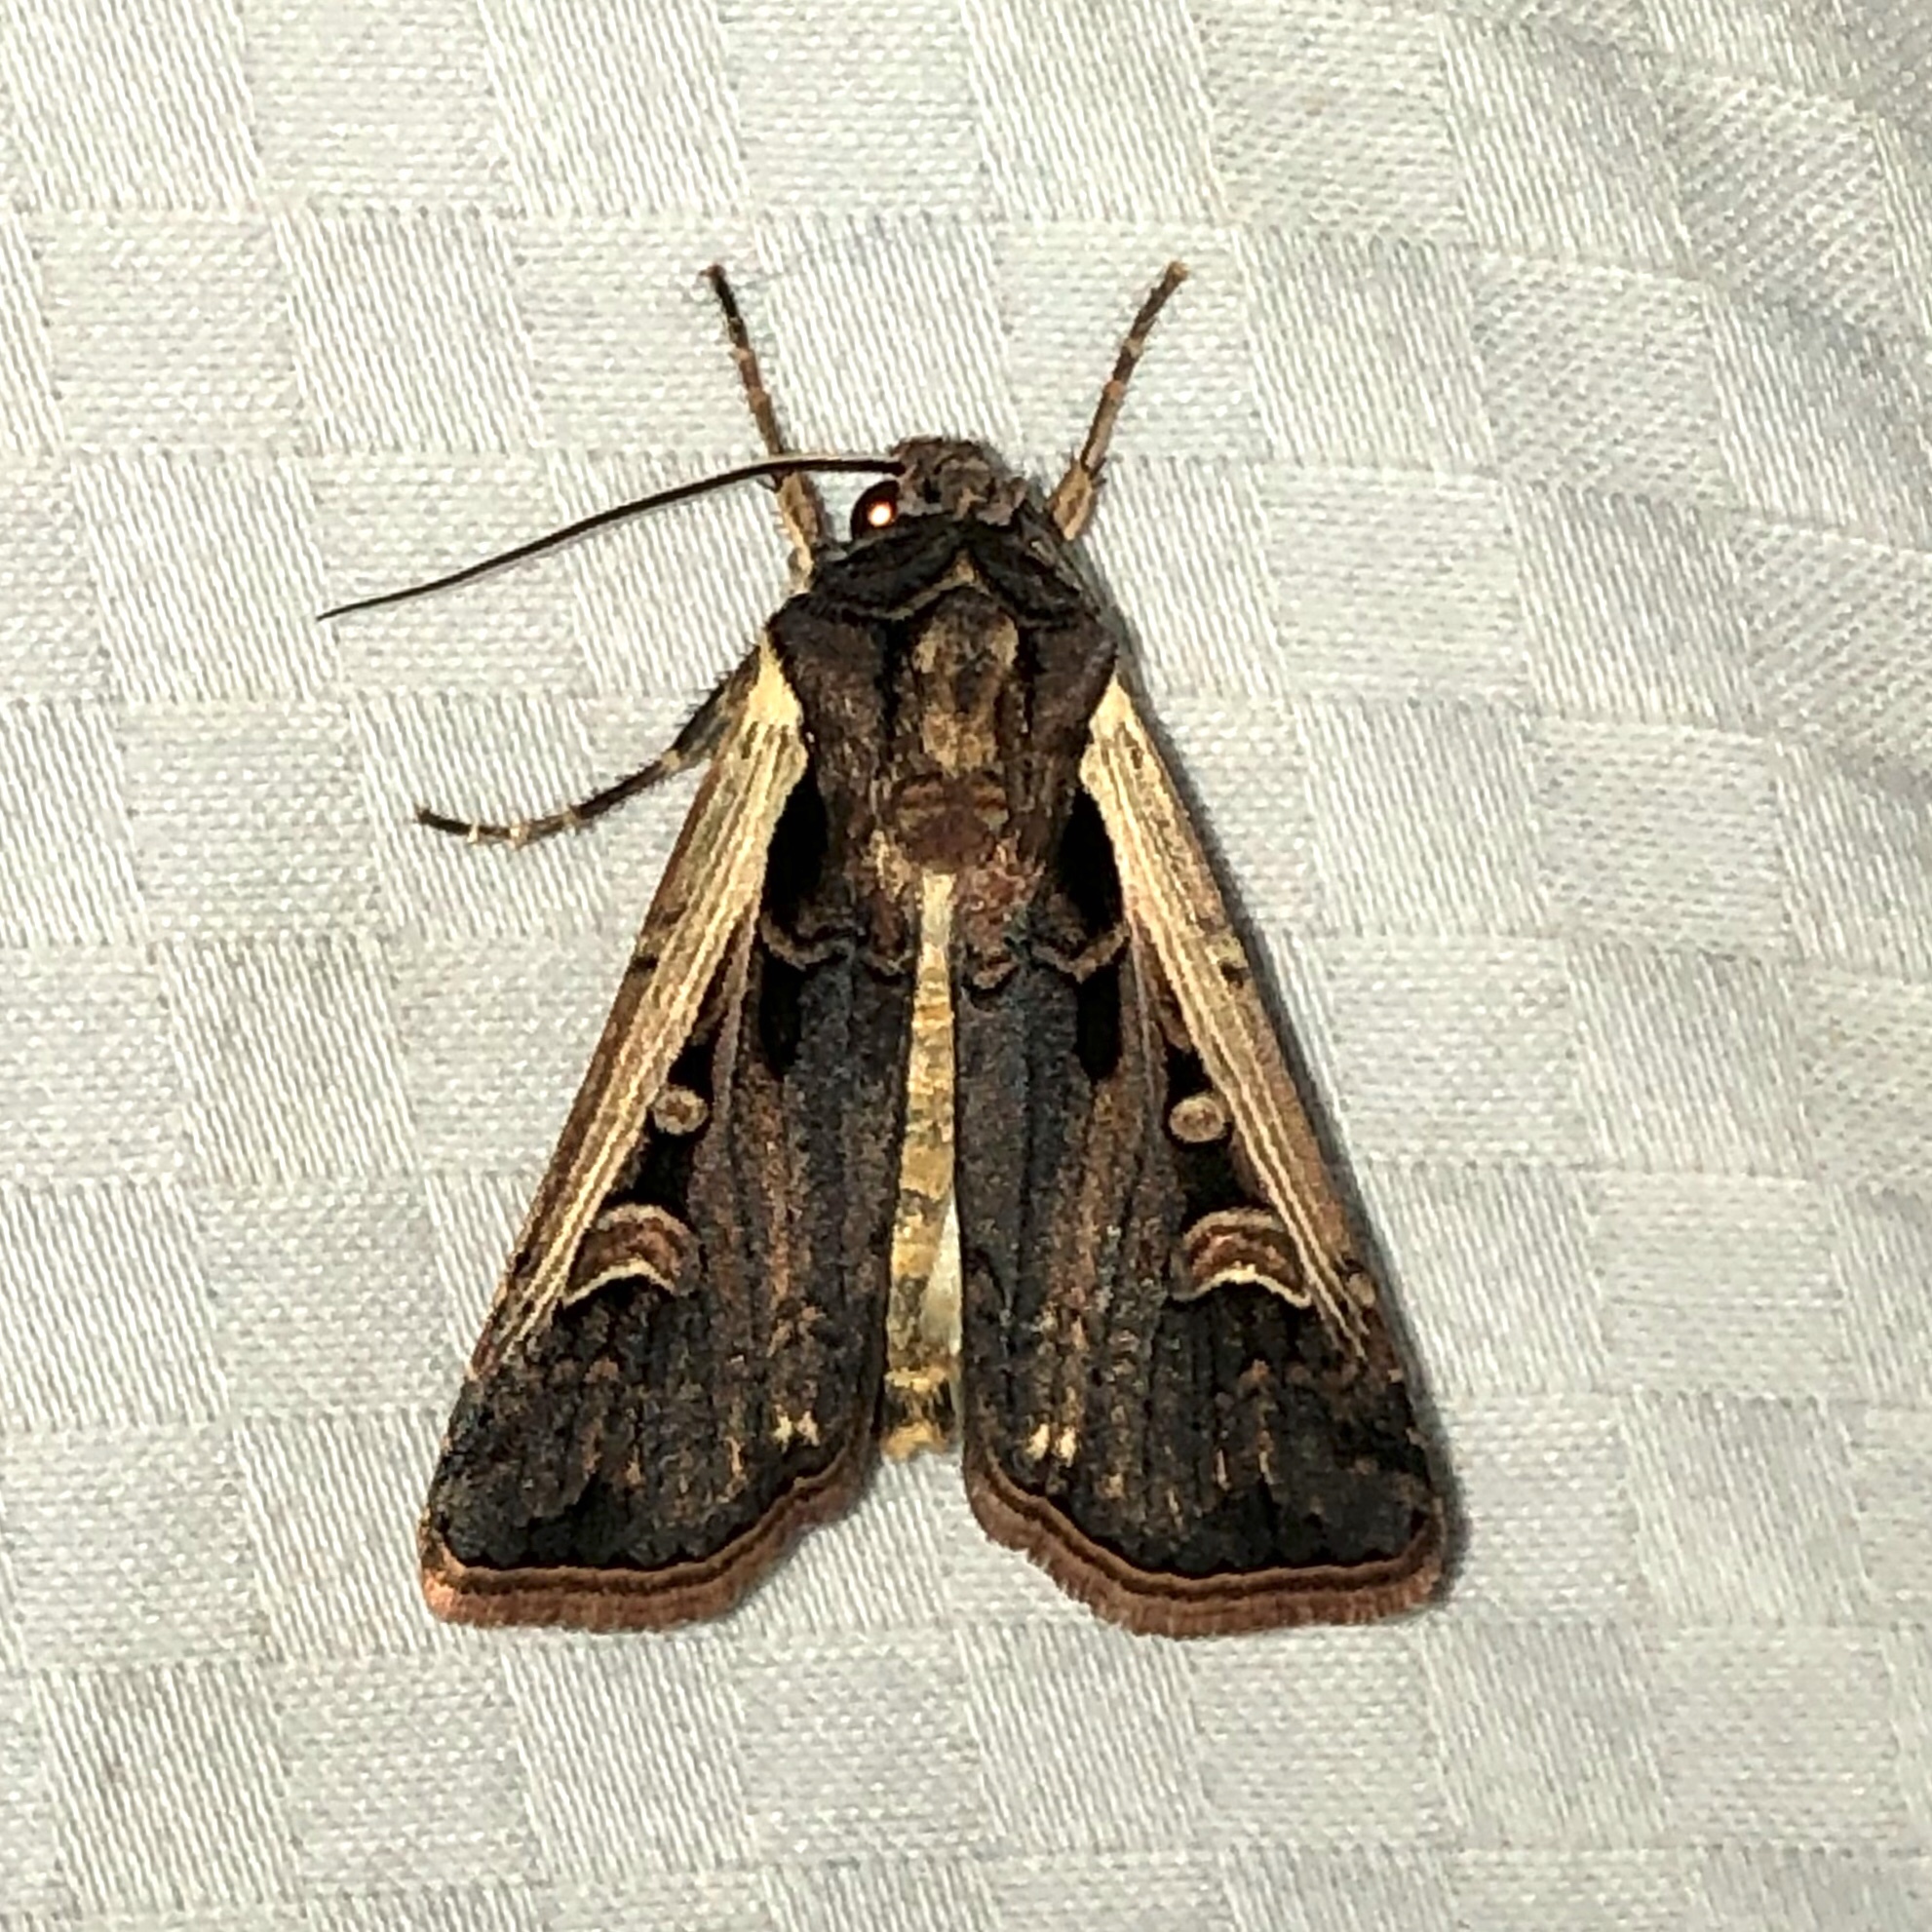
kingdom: Animalia
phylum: Arthropoda
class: Insecta
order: Lepidoptera
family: Noctuidae
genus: Striacosta
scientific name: Striacosta albicosta
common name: Western bean cutworm moth
